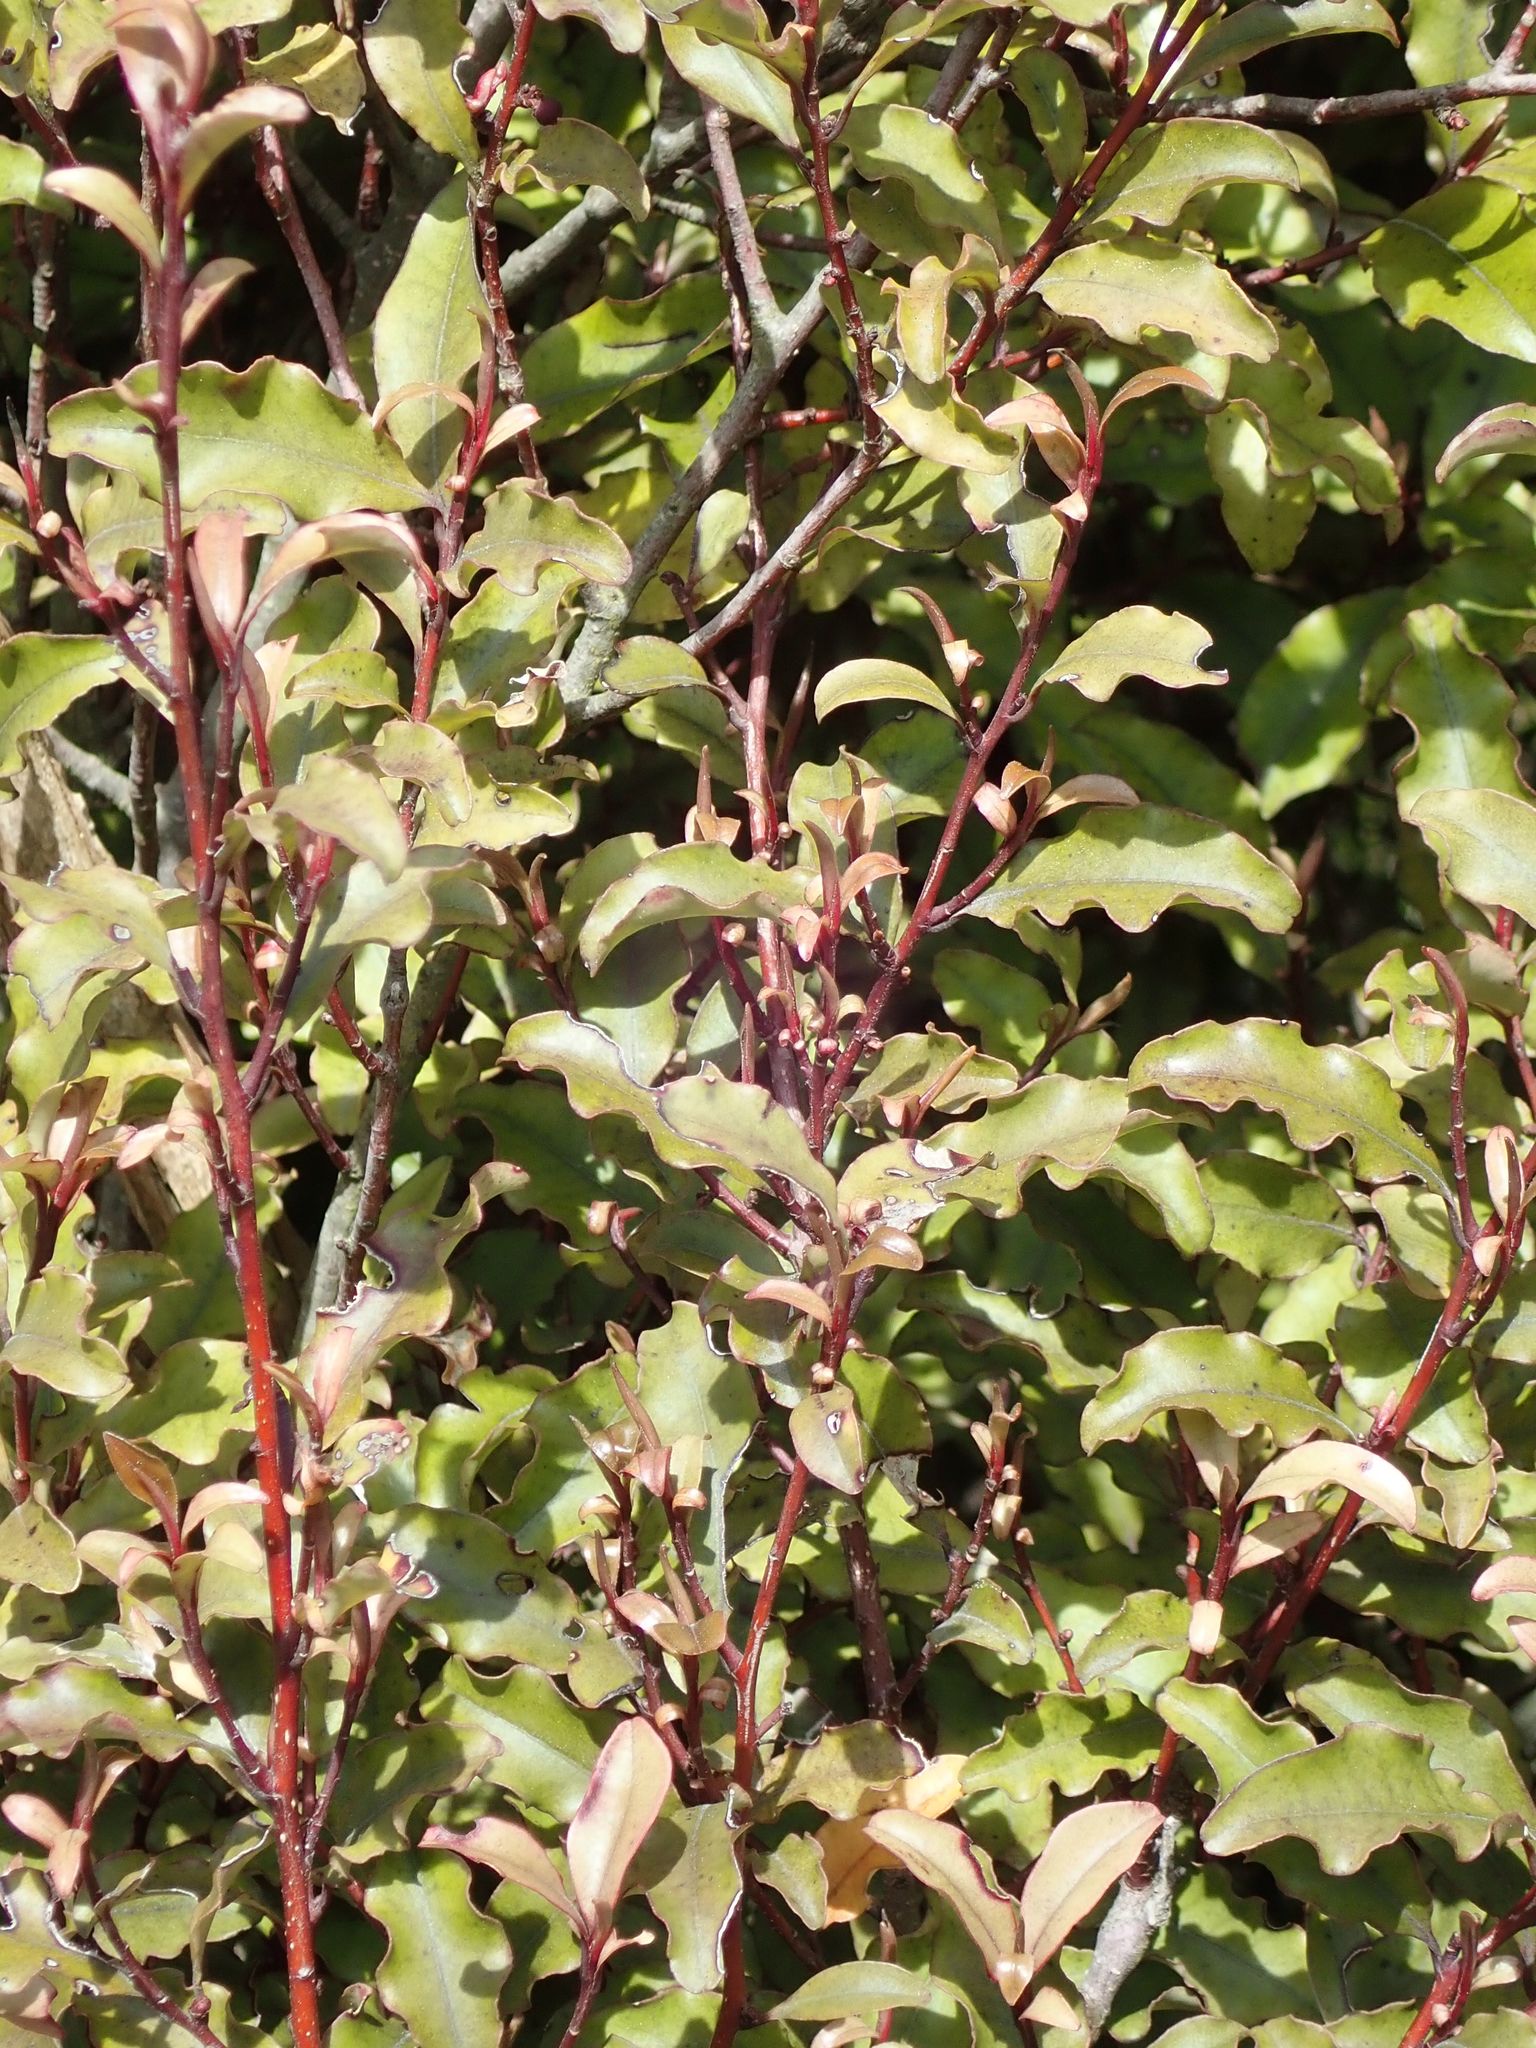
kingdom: Plantae
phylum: Tracheophyta
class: Magnoliopsida
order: Ericales
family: Primulaceae
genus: Myrsine
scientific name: Myrsine australis
